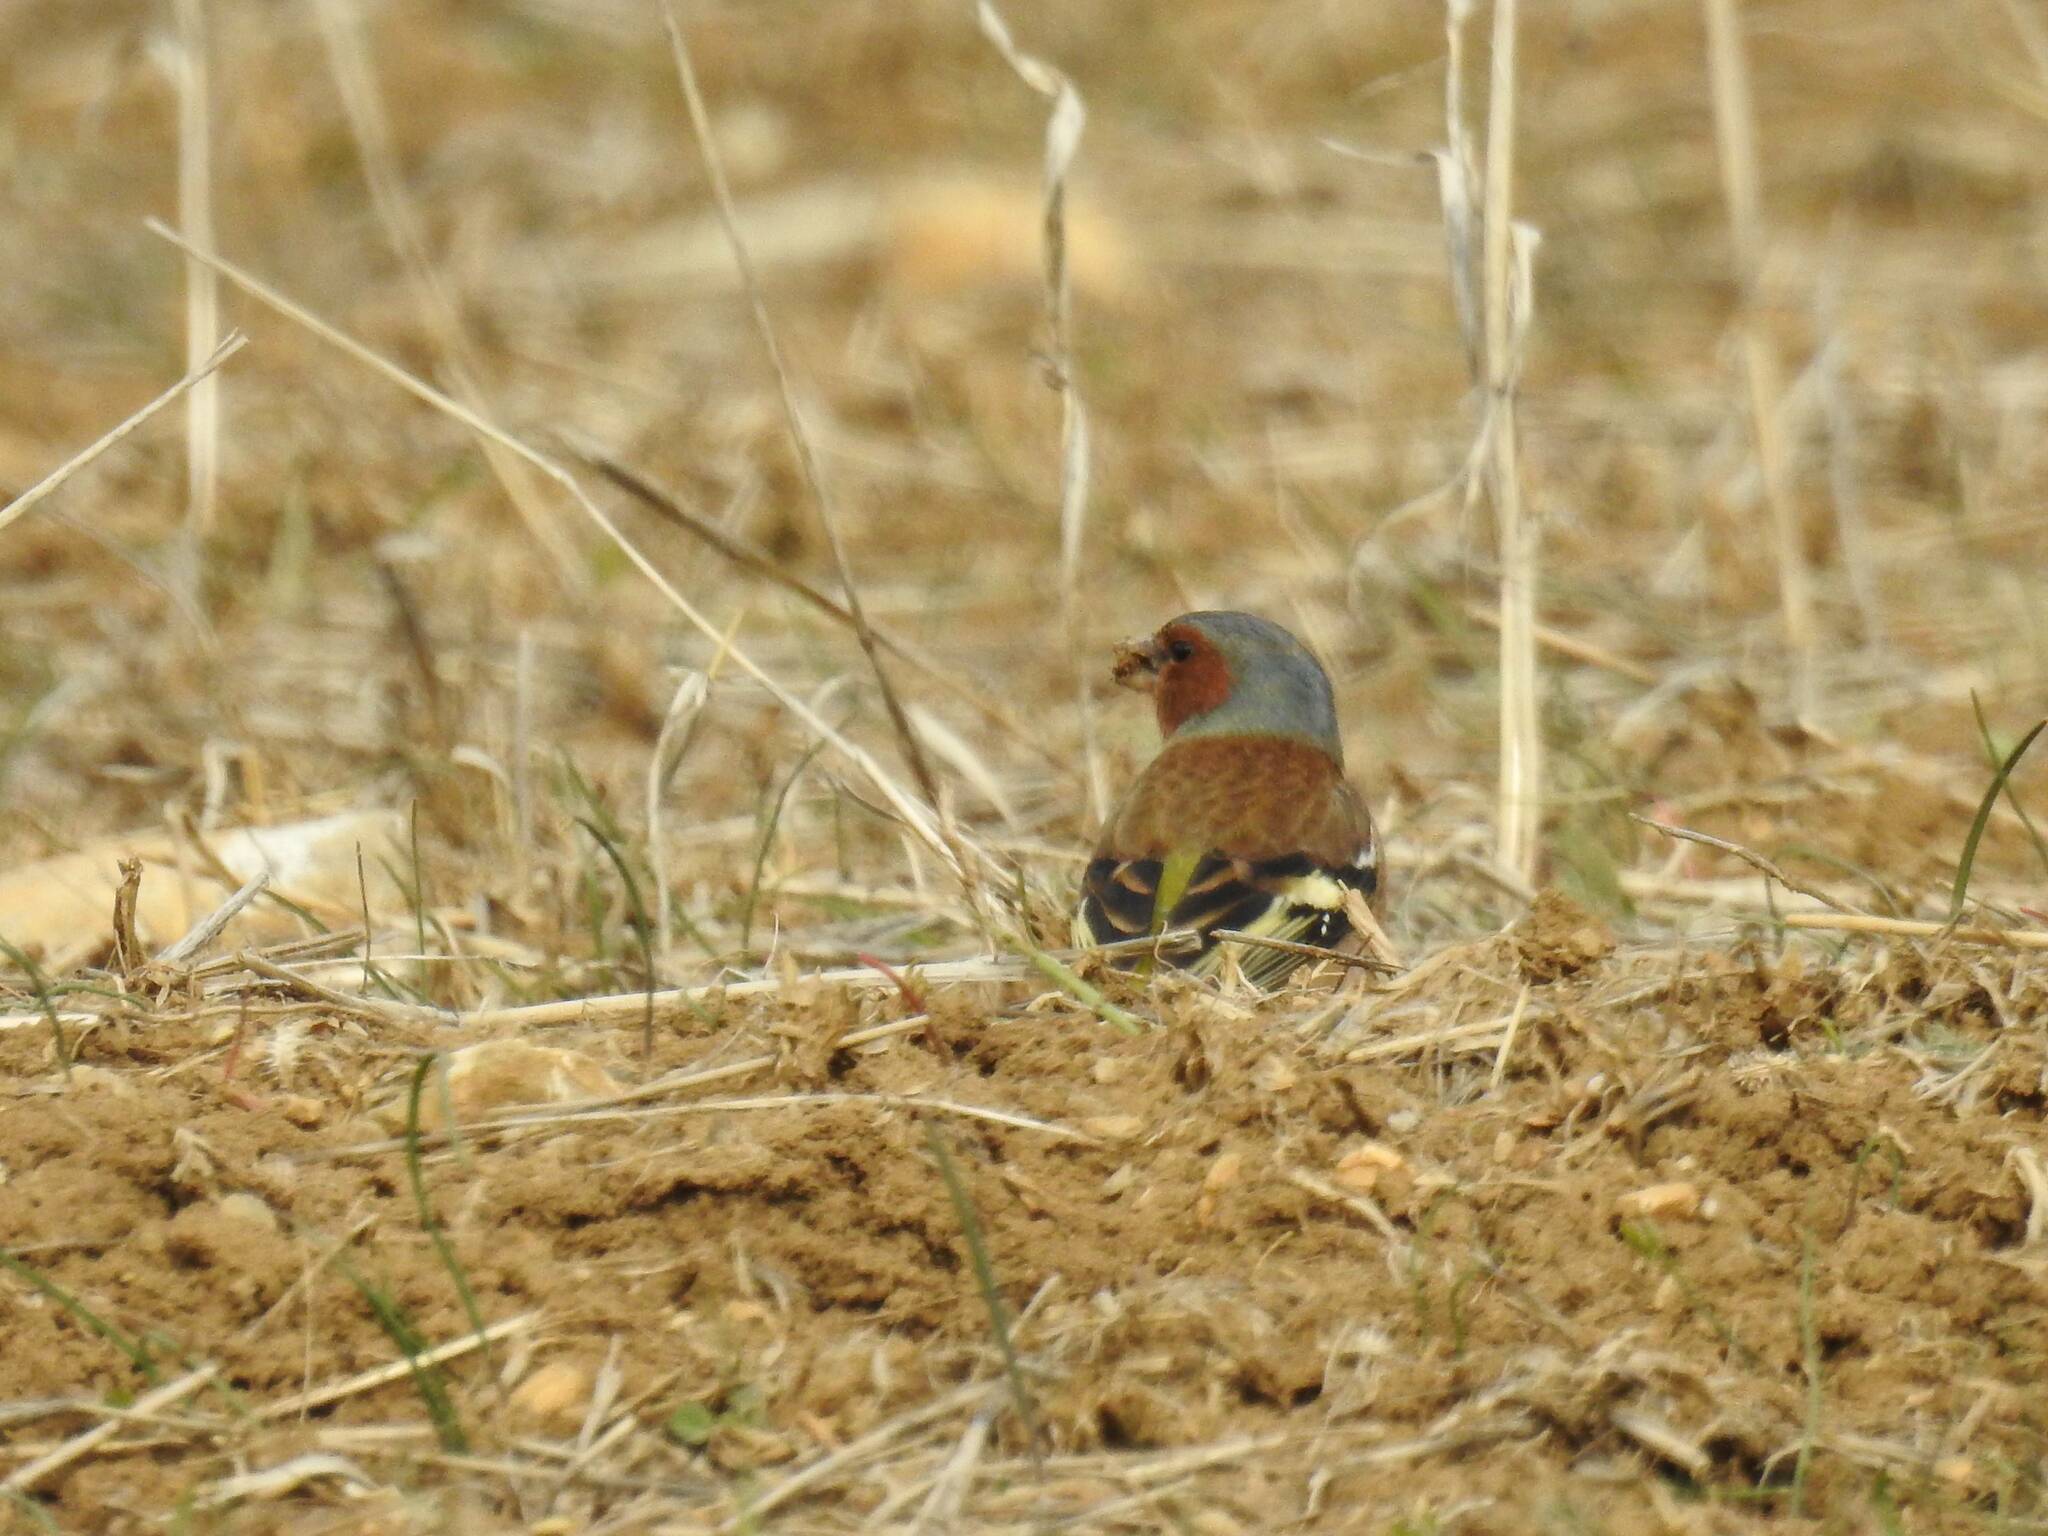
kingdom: Animalia
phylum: Chordata
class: Aves
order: Passeriformes
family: Fringillidae
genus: Fringilla
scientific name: Fringilla coelebs
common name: Common chaffinch
